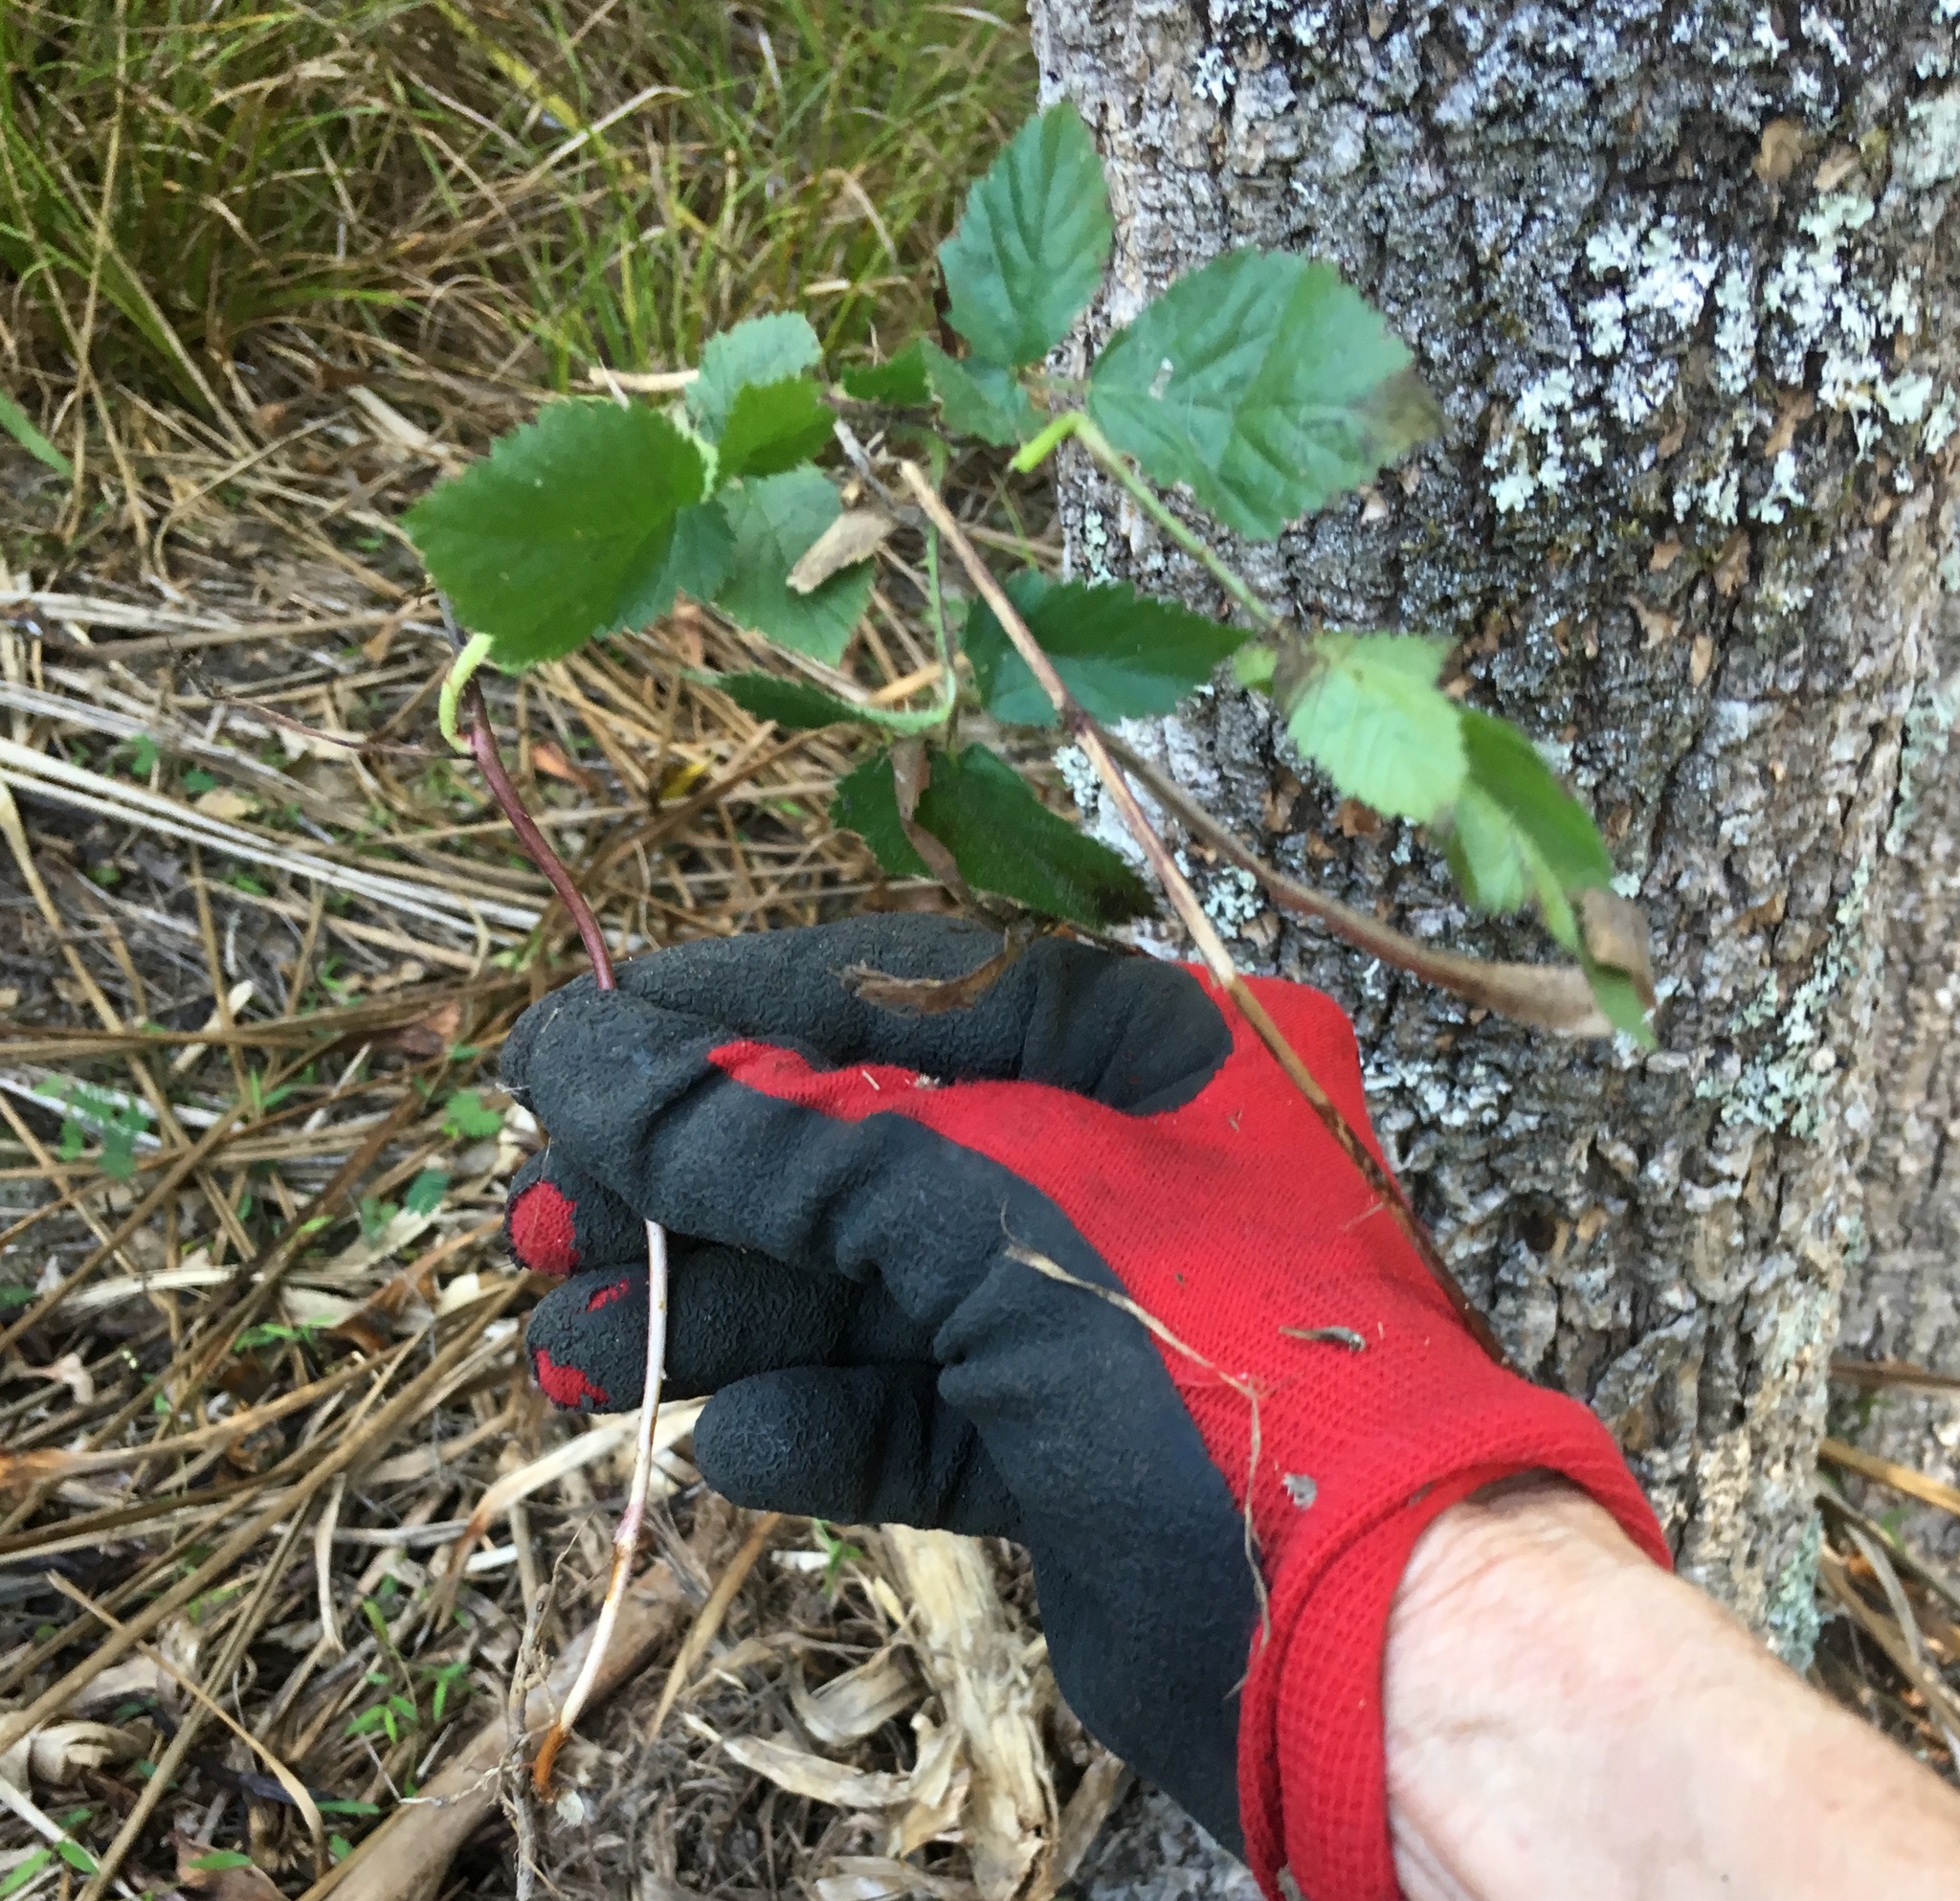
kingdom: Plantae
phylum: Tracheophyta
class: Magnoliopsida
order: Rosales
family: Rosaceae
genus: Rubus
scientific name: Rubus
